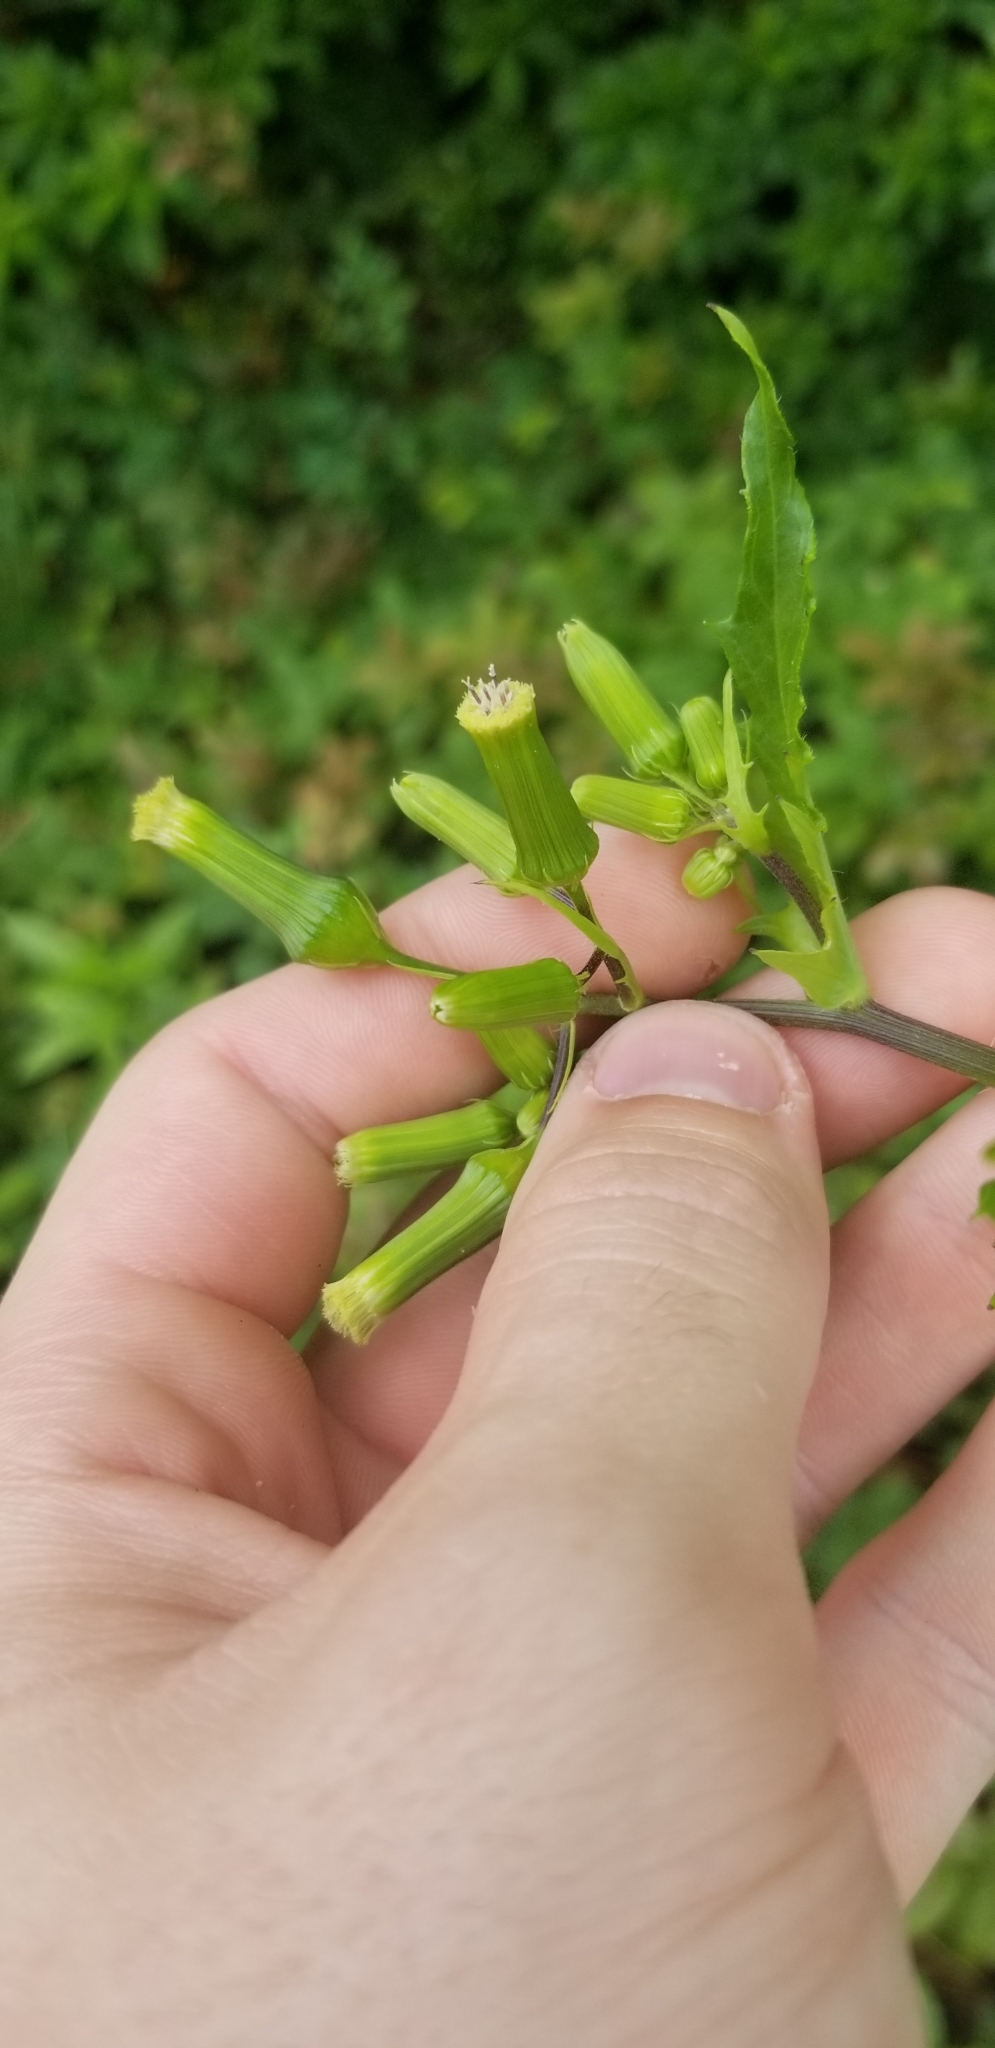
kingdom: Plantae
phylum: Tracheophyta
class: Magnoliopsida
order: Asterales
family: Asteraceae
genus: Erechtites
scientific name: Erechtites hieraciifolius
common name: American burnweed
